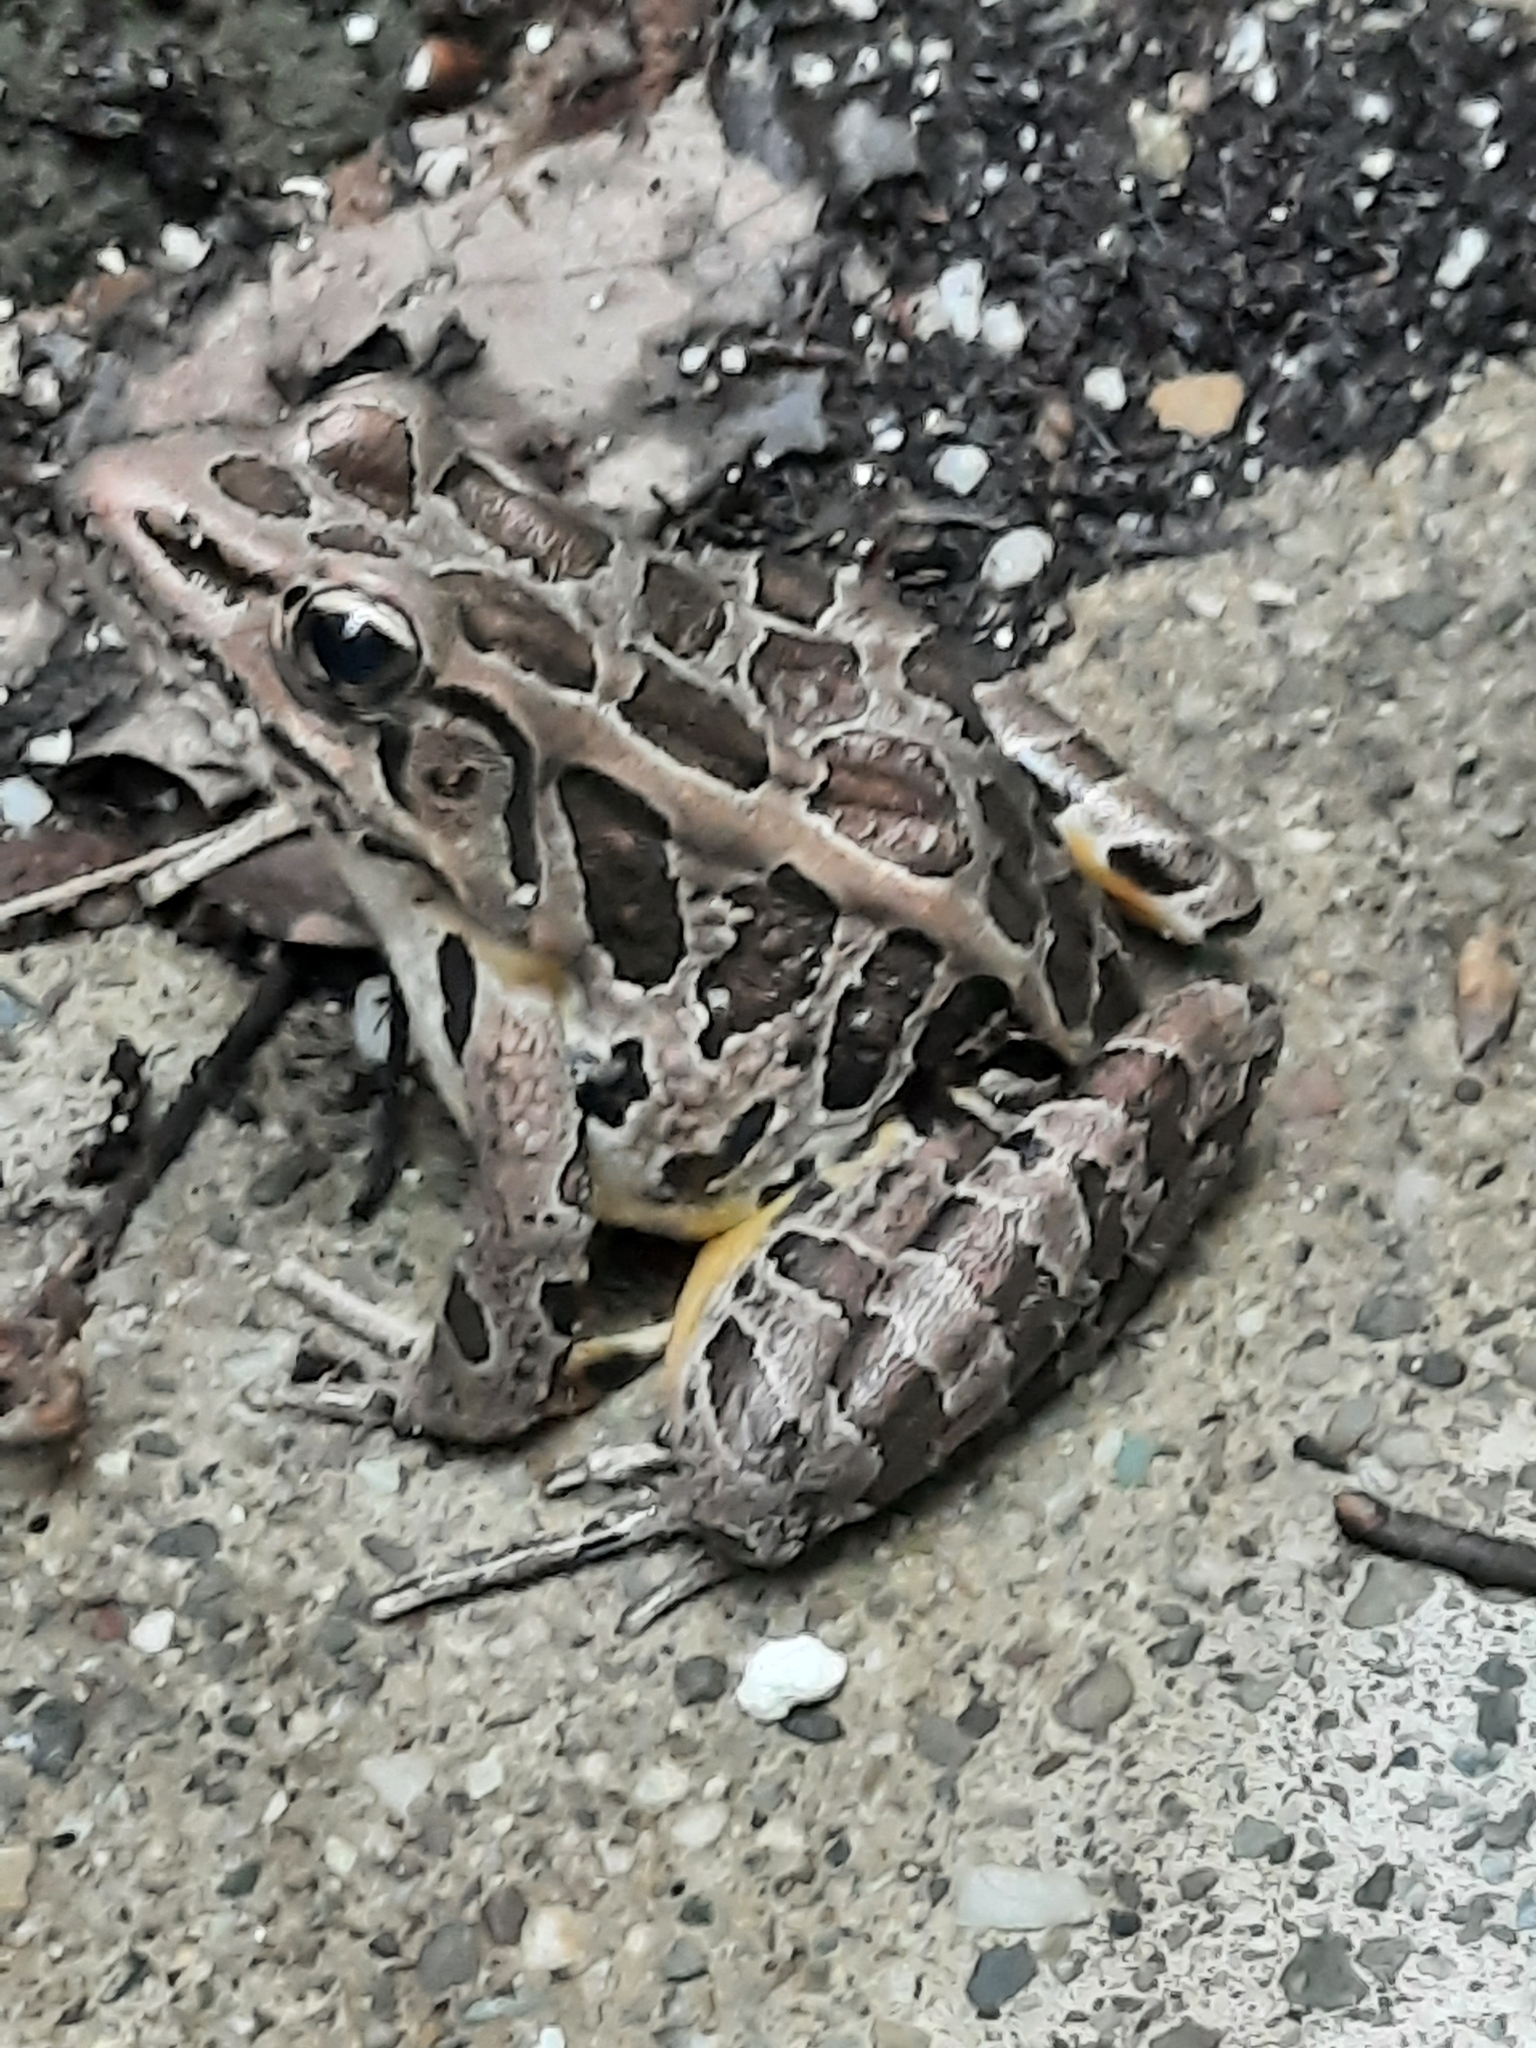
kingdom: Animalia
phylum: Chordata
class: Amphibia
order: Anura
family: Ranidae
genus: Lithobates
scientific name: Lithobates palustris
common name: Pickerel frog
